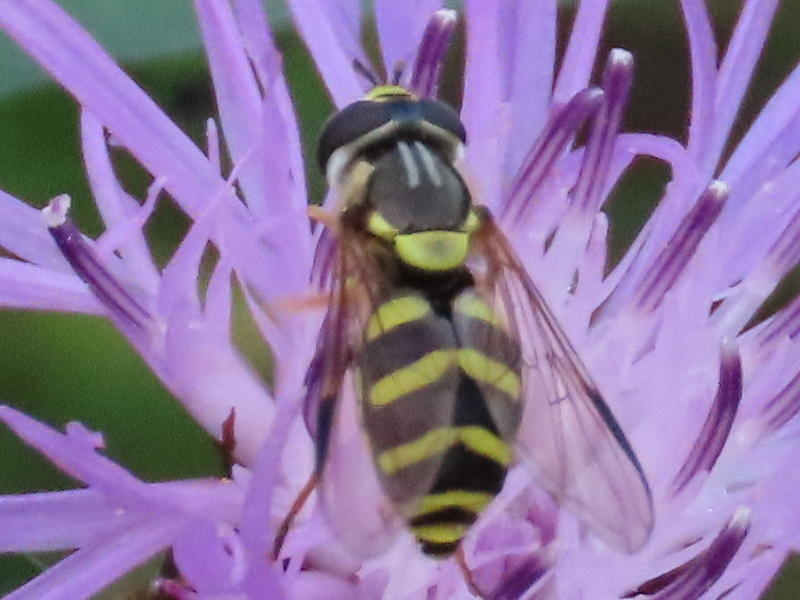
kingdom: Animalia
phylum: Arthropoda
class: Insecta
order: Diptera
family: Syrphidae
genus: Dasysyrphus
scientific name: Dasysyrphus albostriatus
